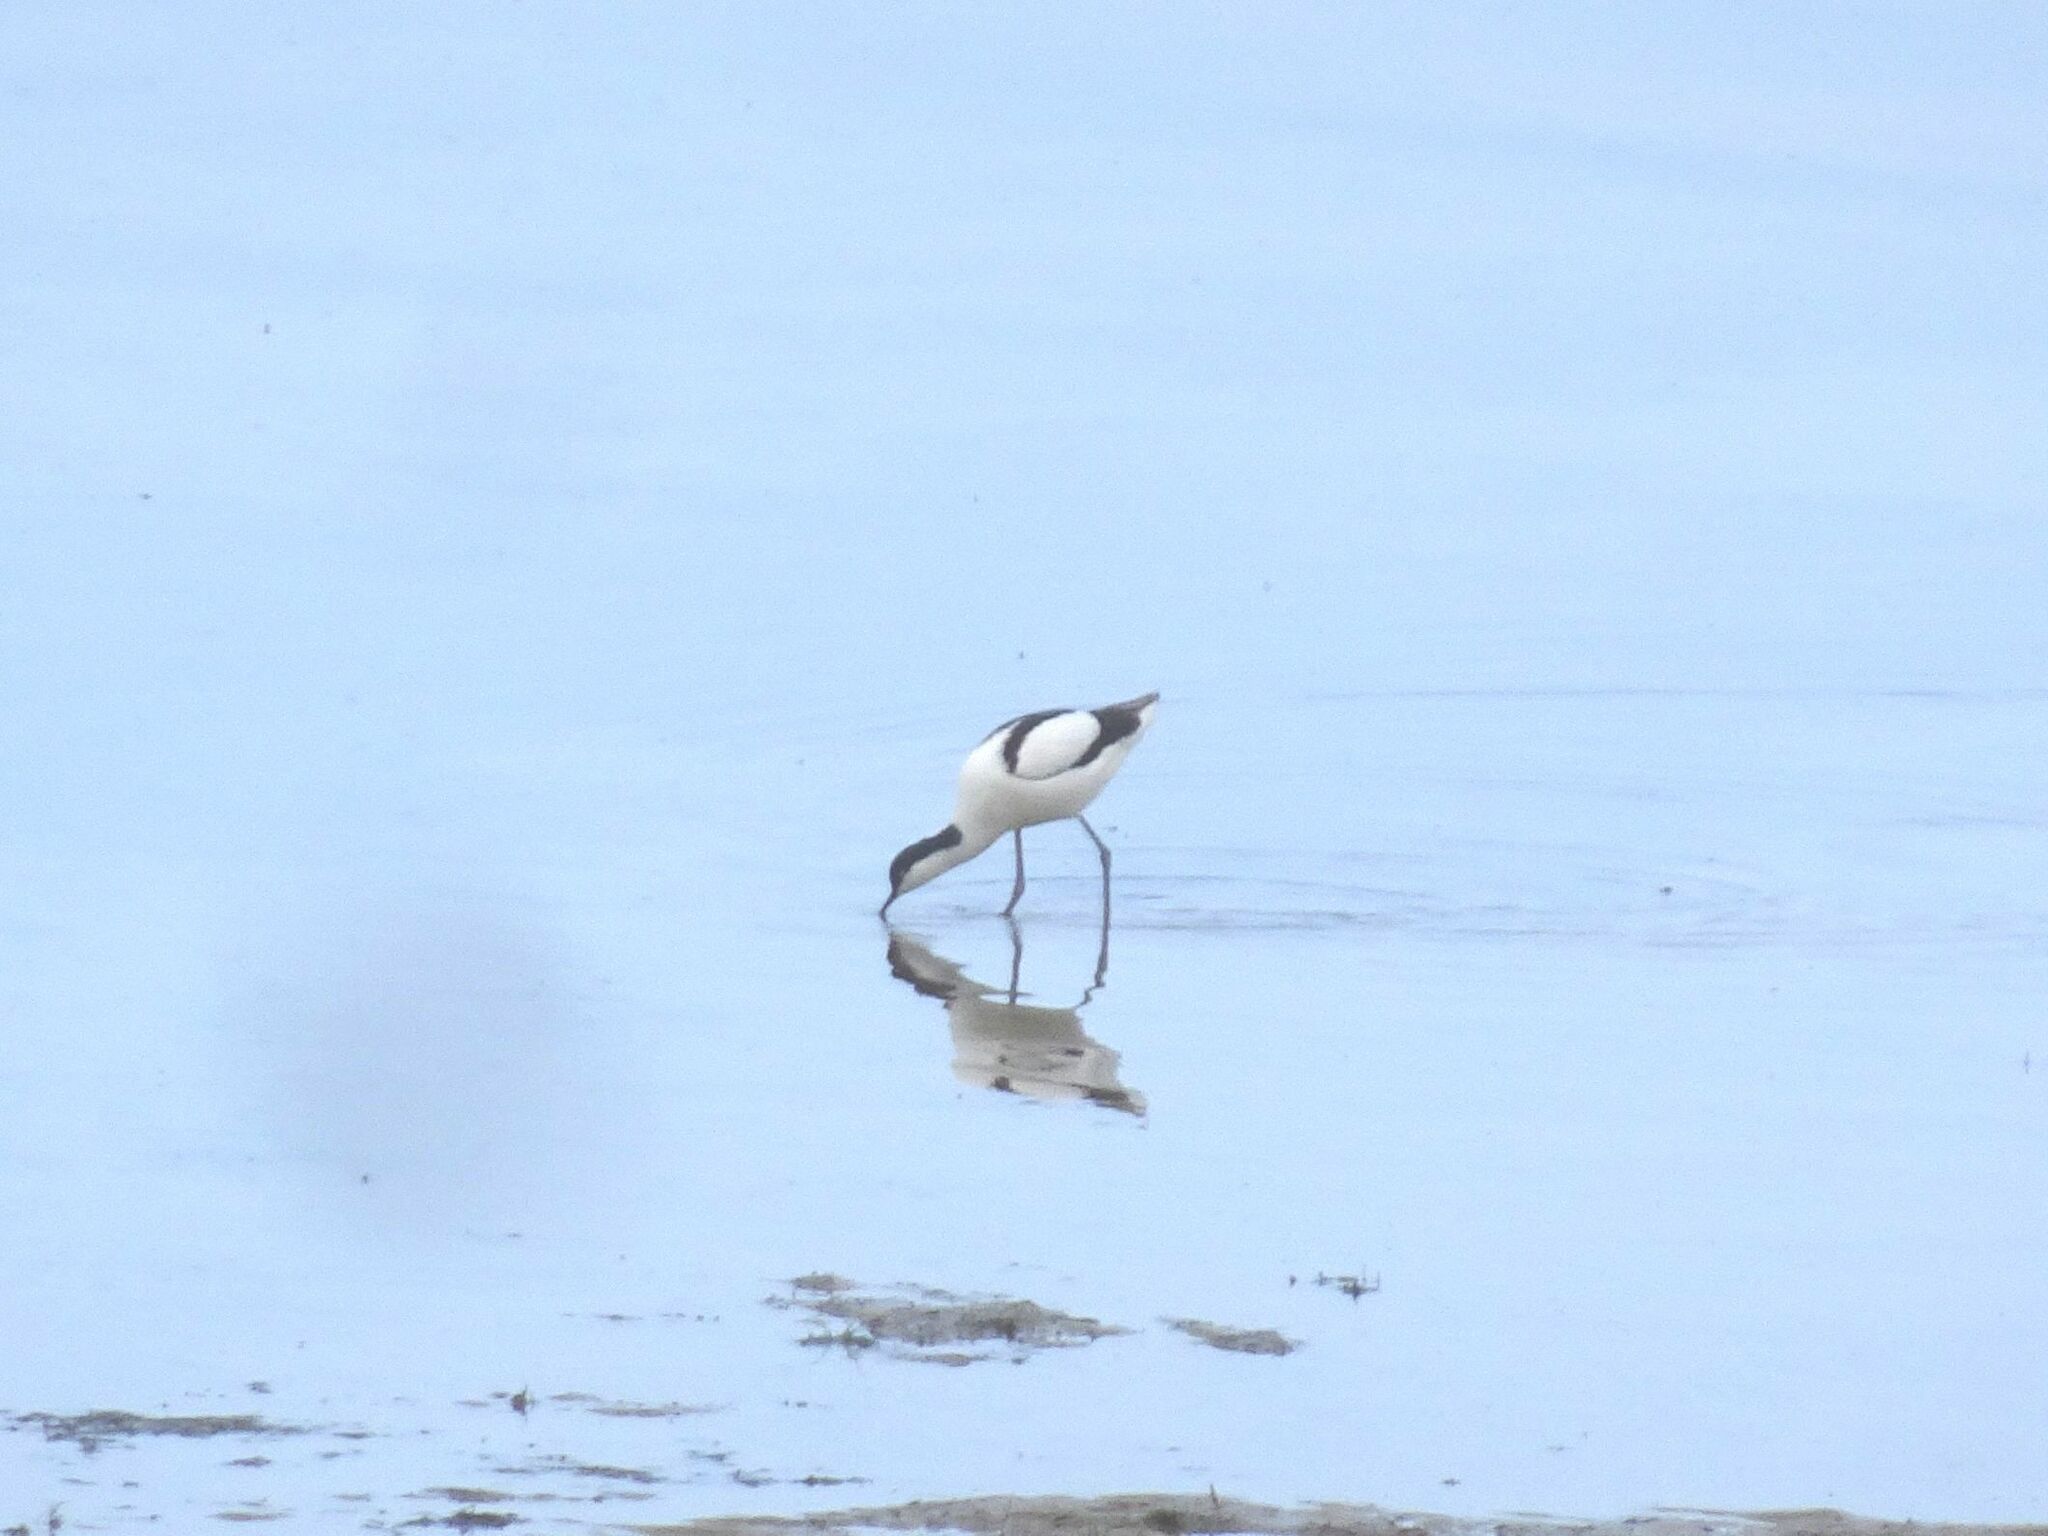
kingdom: Animalia
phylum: Chordata
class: Aves
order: Charadriiformes
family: Recurvirostridae
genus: Recurvirostra
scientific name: Recurvirostra avosetta
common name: Pied avocet
